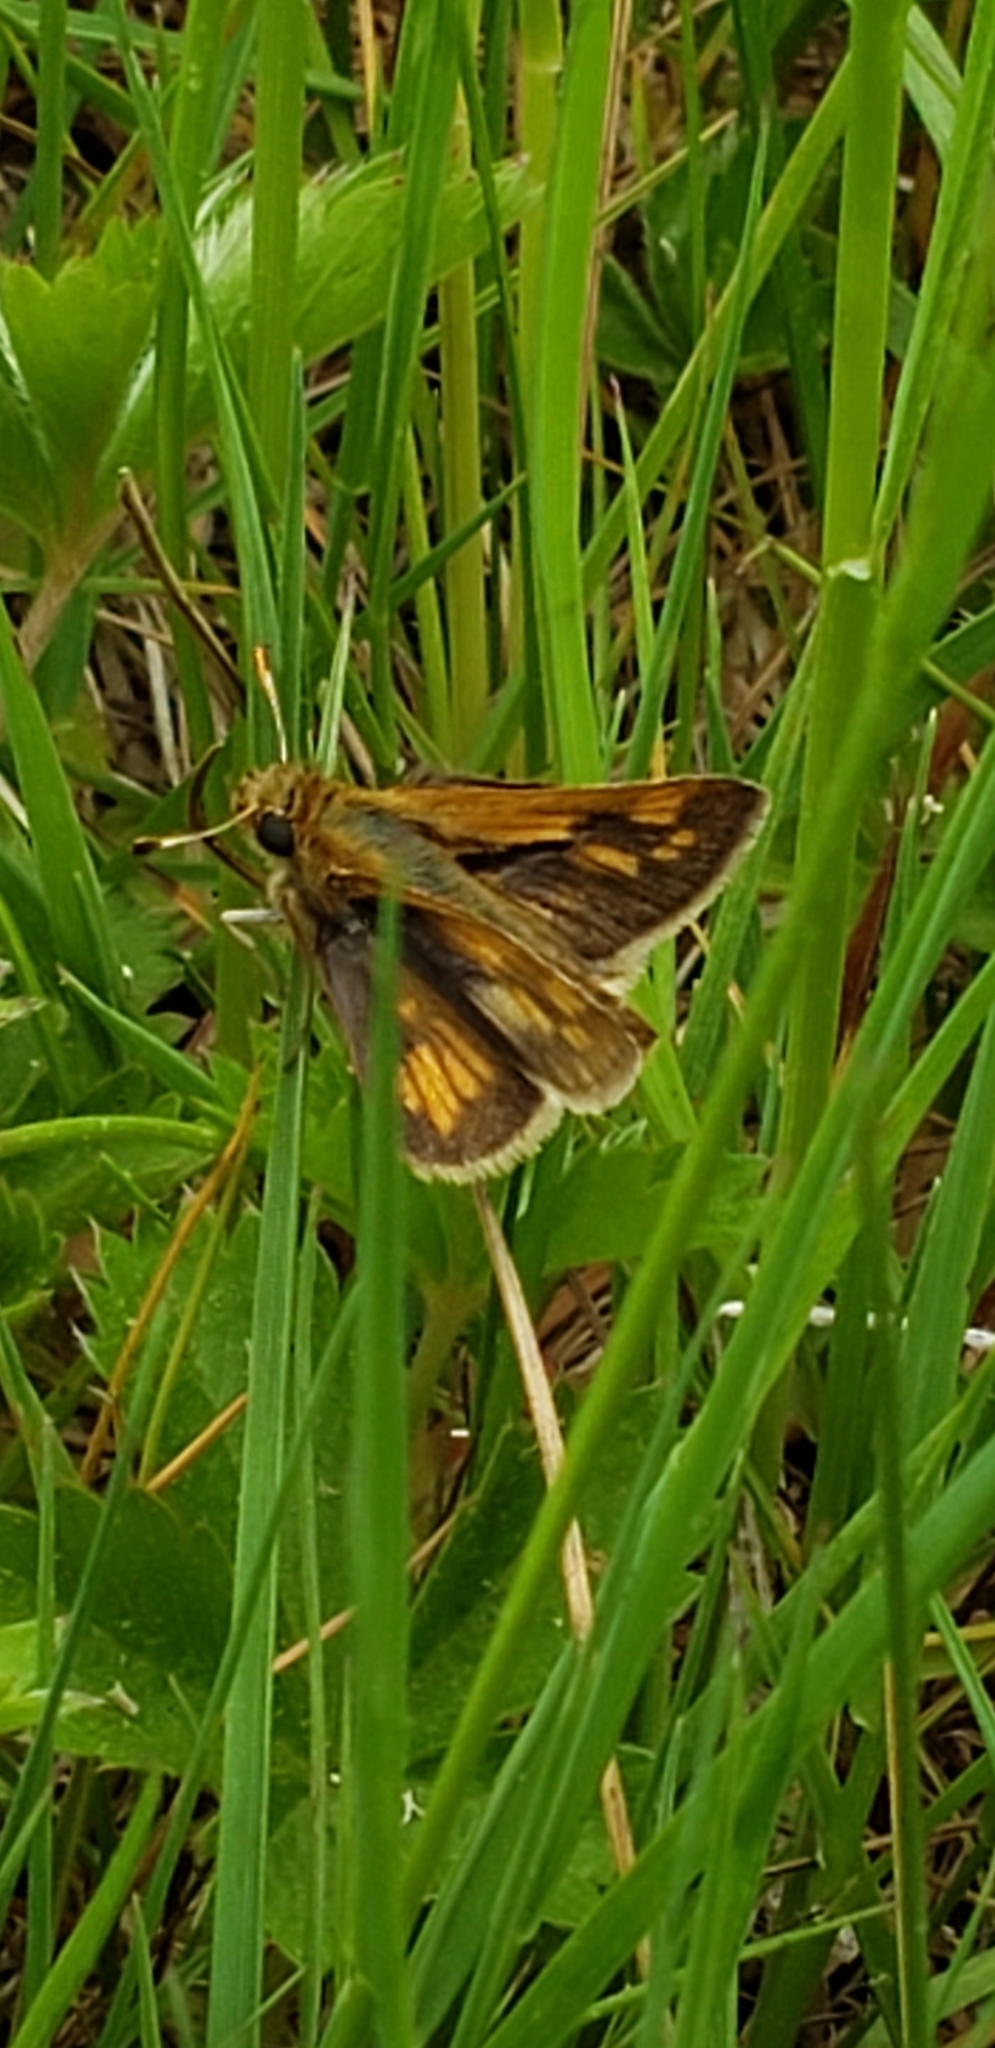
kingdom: Animalia
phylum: Arthropoda
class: Insecta
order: Lepidoptera
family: Hesperiidae
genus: Polites
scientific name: Polites coras
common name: Peck's skipper
